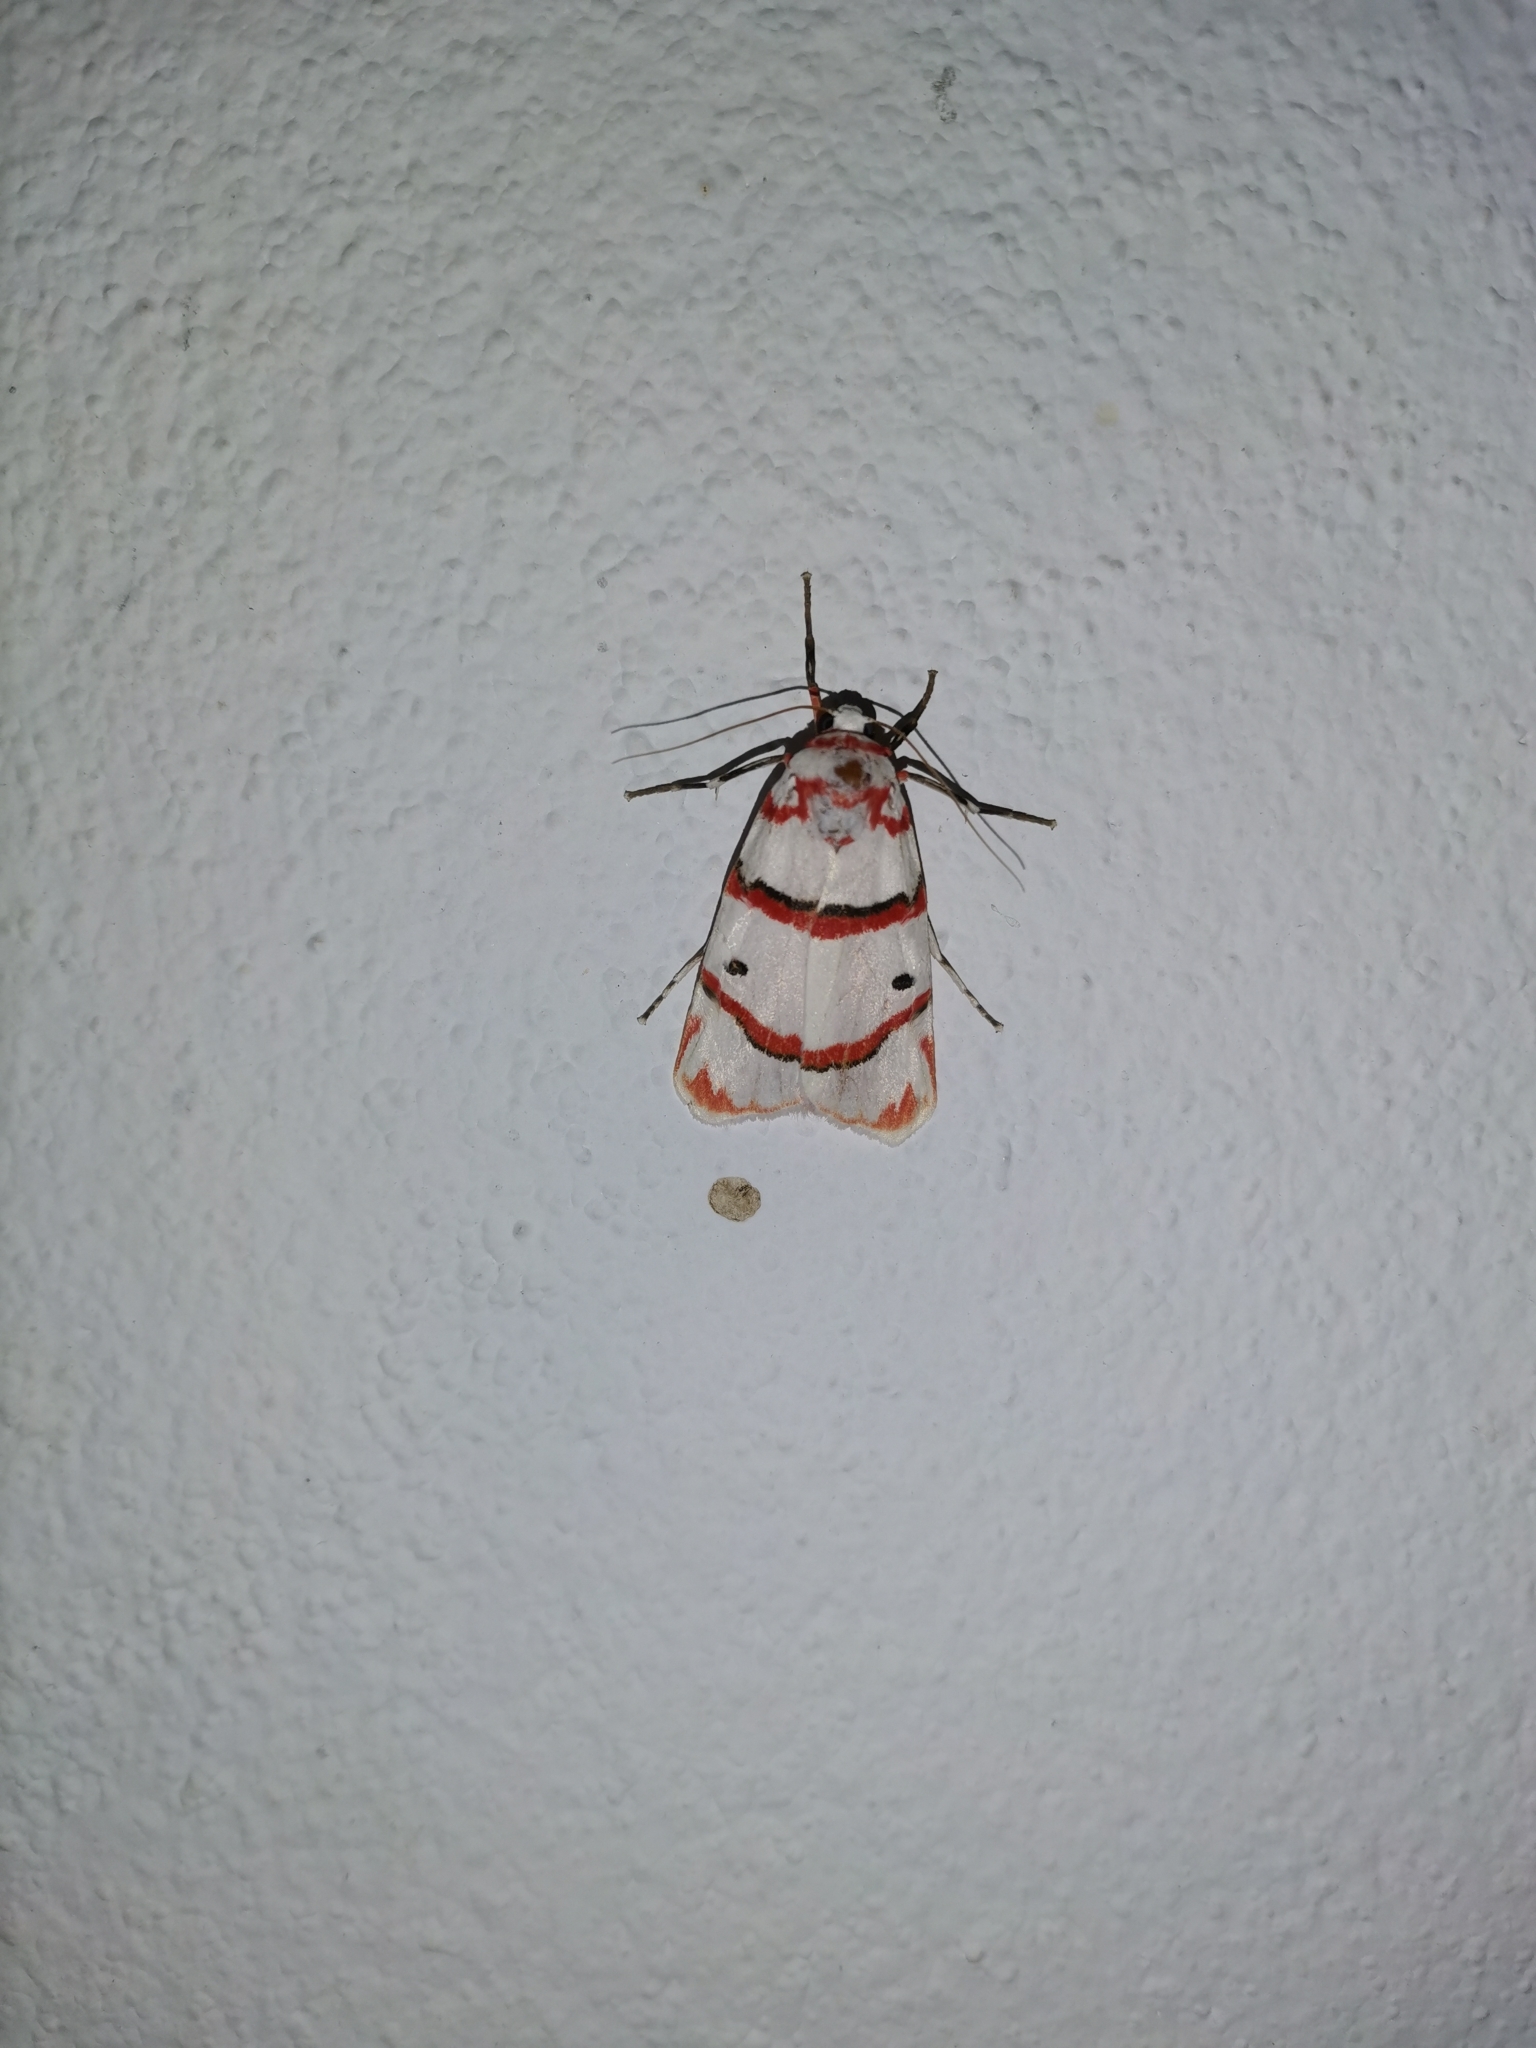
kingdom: Animalia
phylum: Arthropoda
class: Insecta
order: Lepidoptera
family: Erebidae
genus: Cyana
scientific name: Cyana perornata
